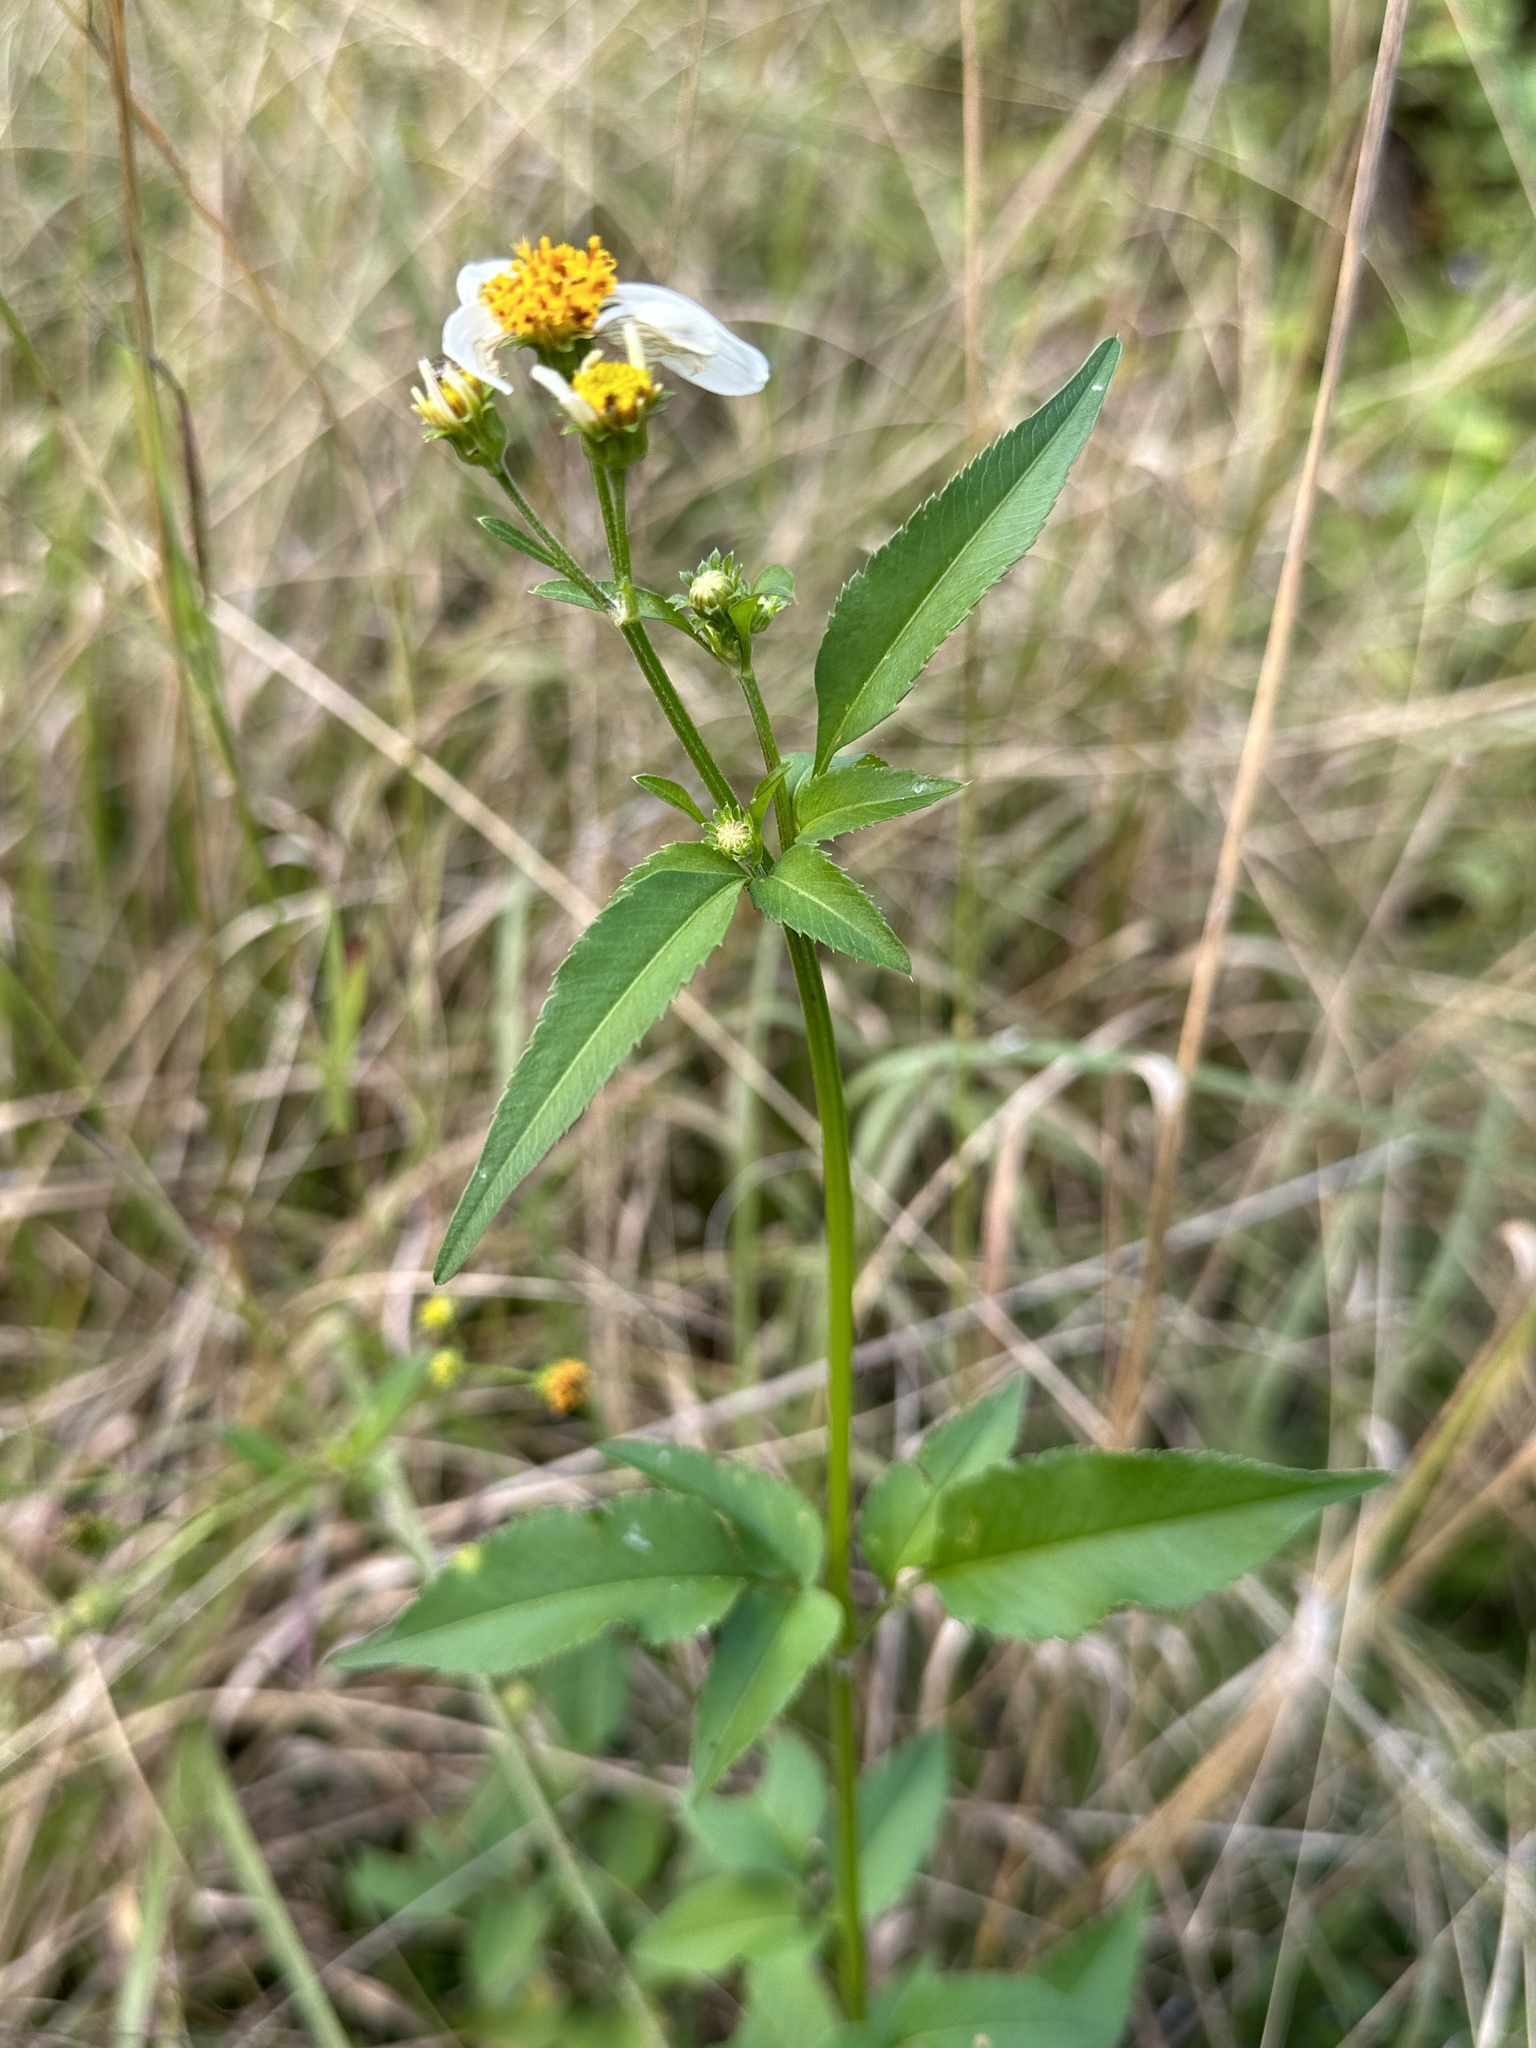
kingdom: Plantae
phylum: Tracheophyta
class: Magnoliopsida
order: Asterales
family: Asteraceae
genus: Bidens
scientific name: Bidens alba
